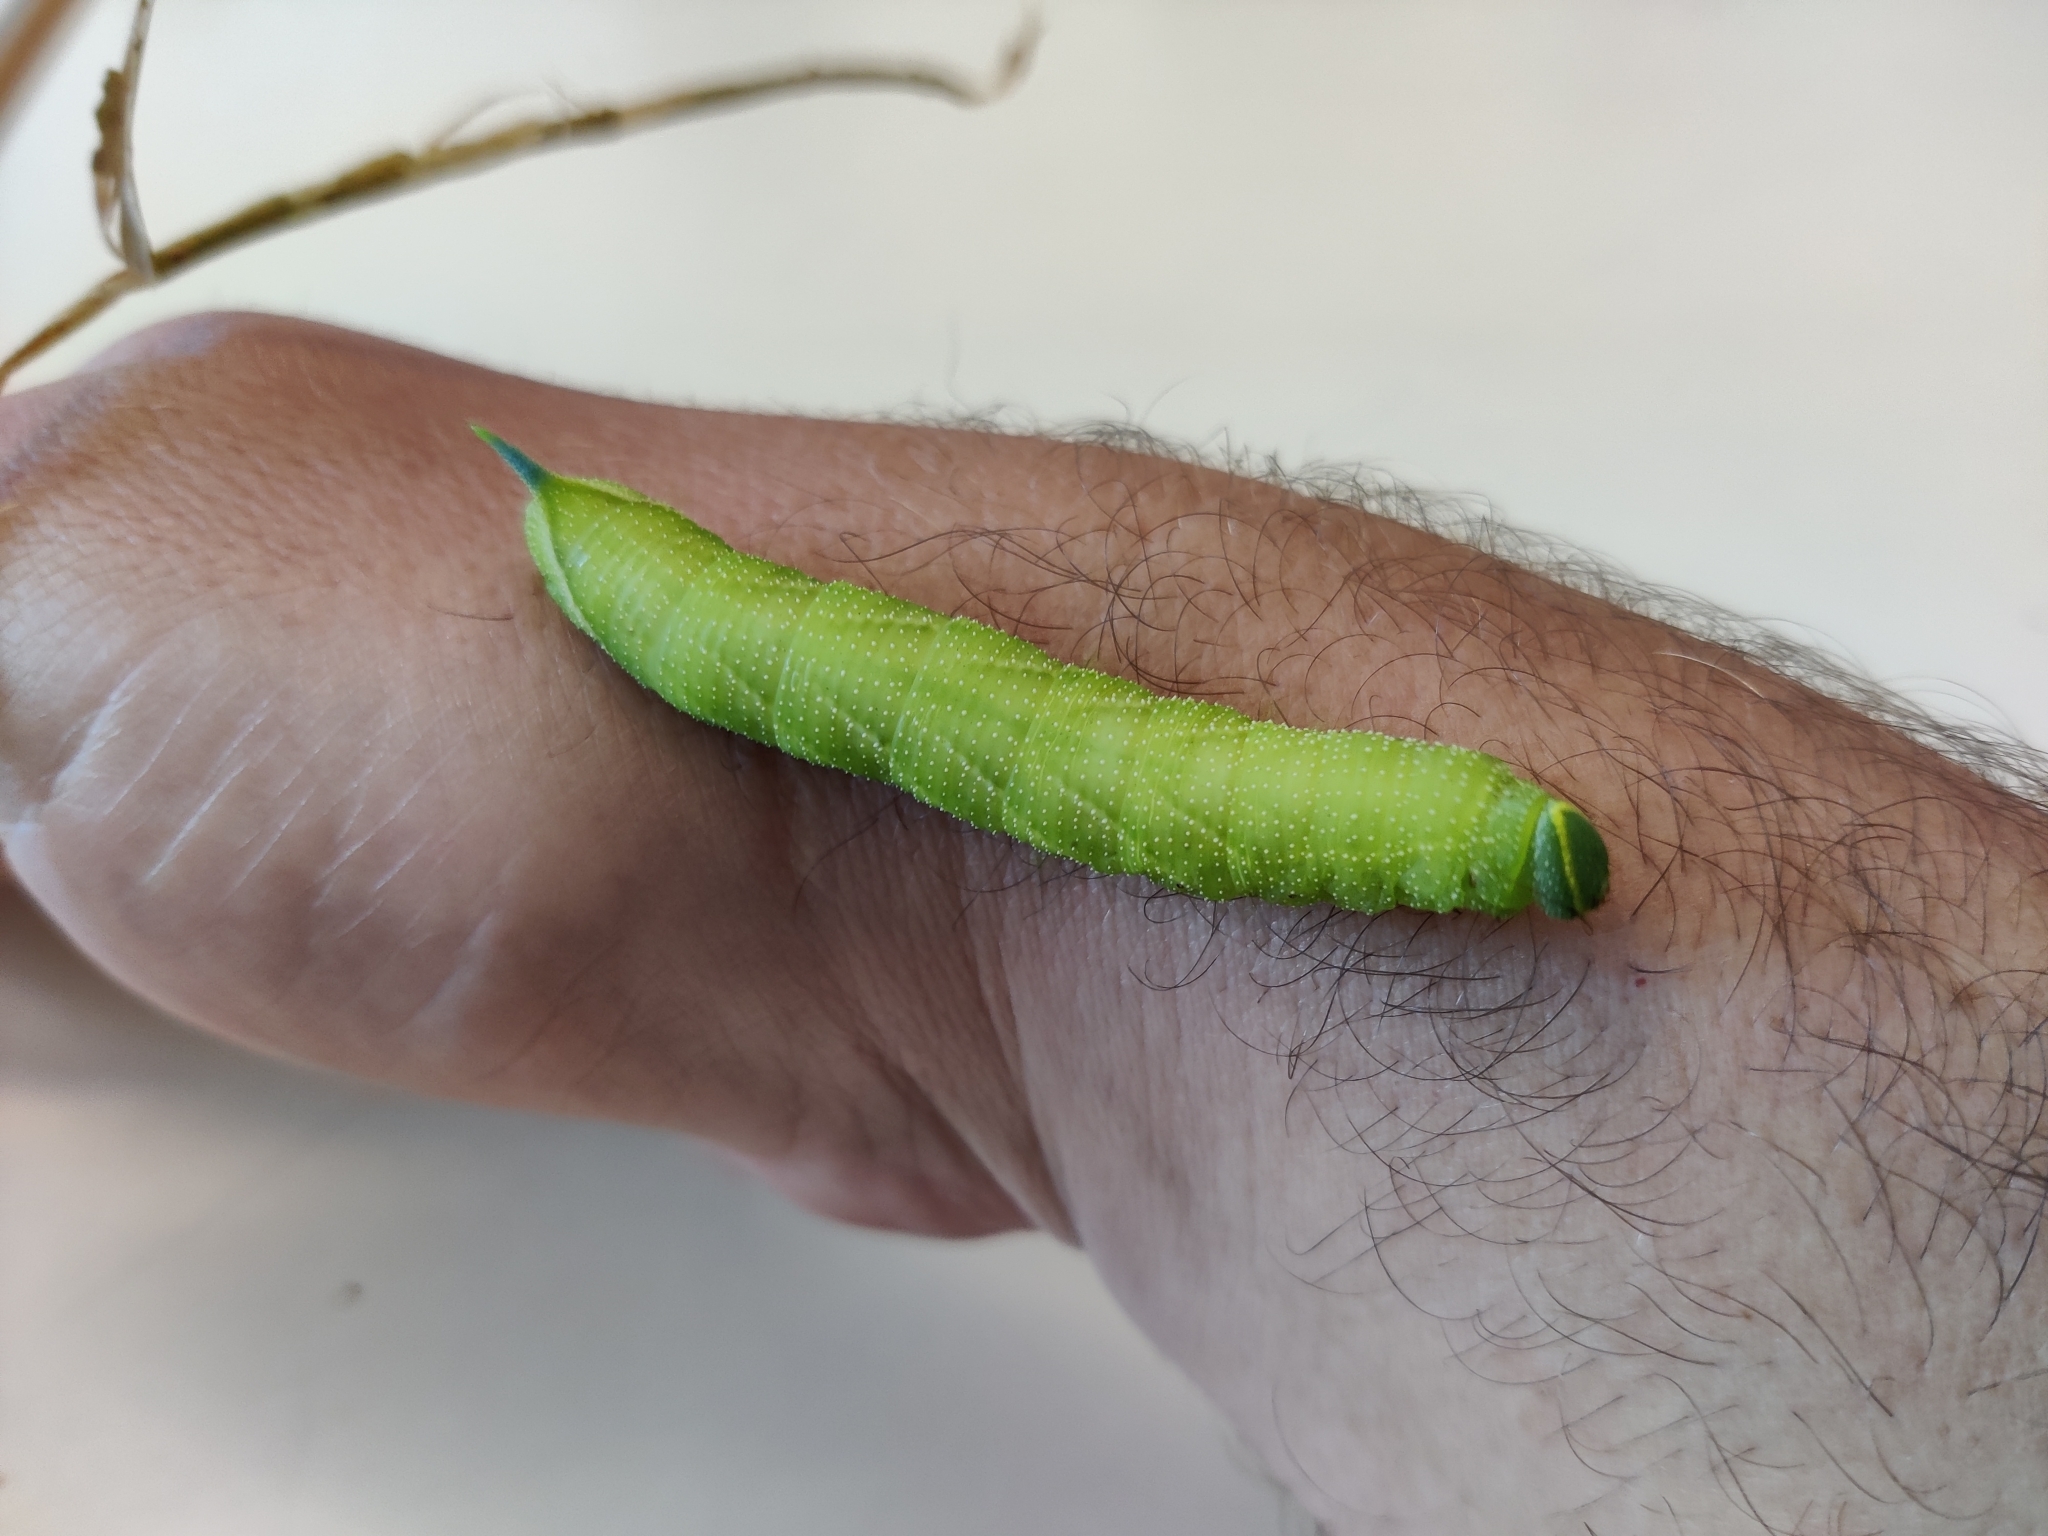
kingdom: Animalia
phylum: Arthropoda
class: Insecta
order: Lepidoptera
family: Sphingidae
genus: Smerinthus
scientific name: Smerinthus ocellata
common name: Eyed hawk-moth
